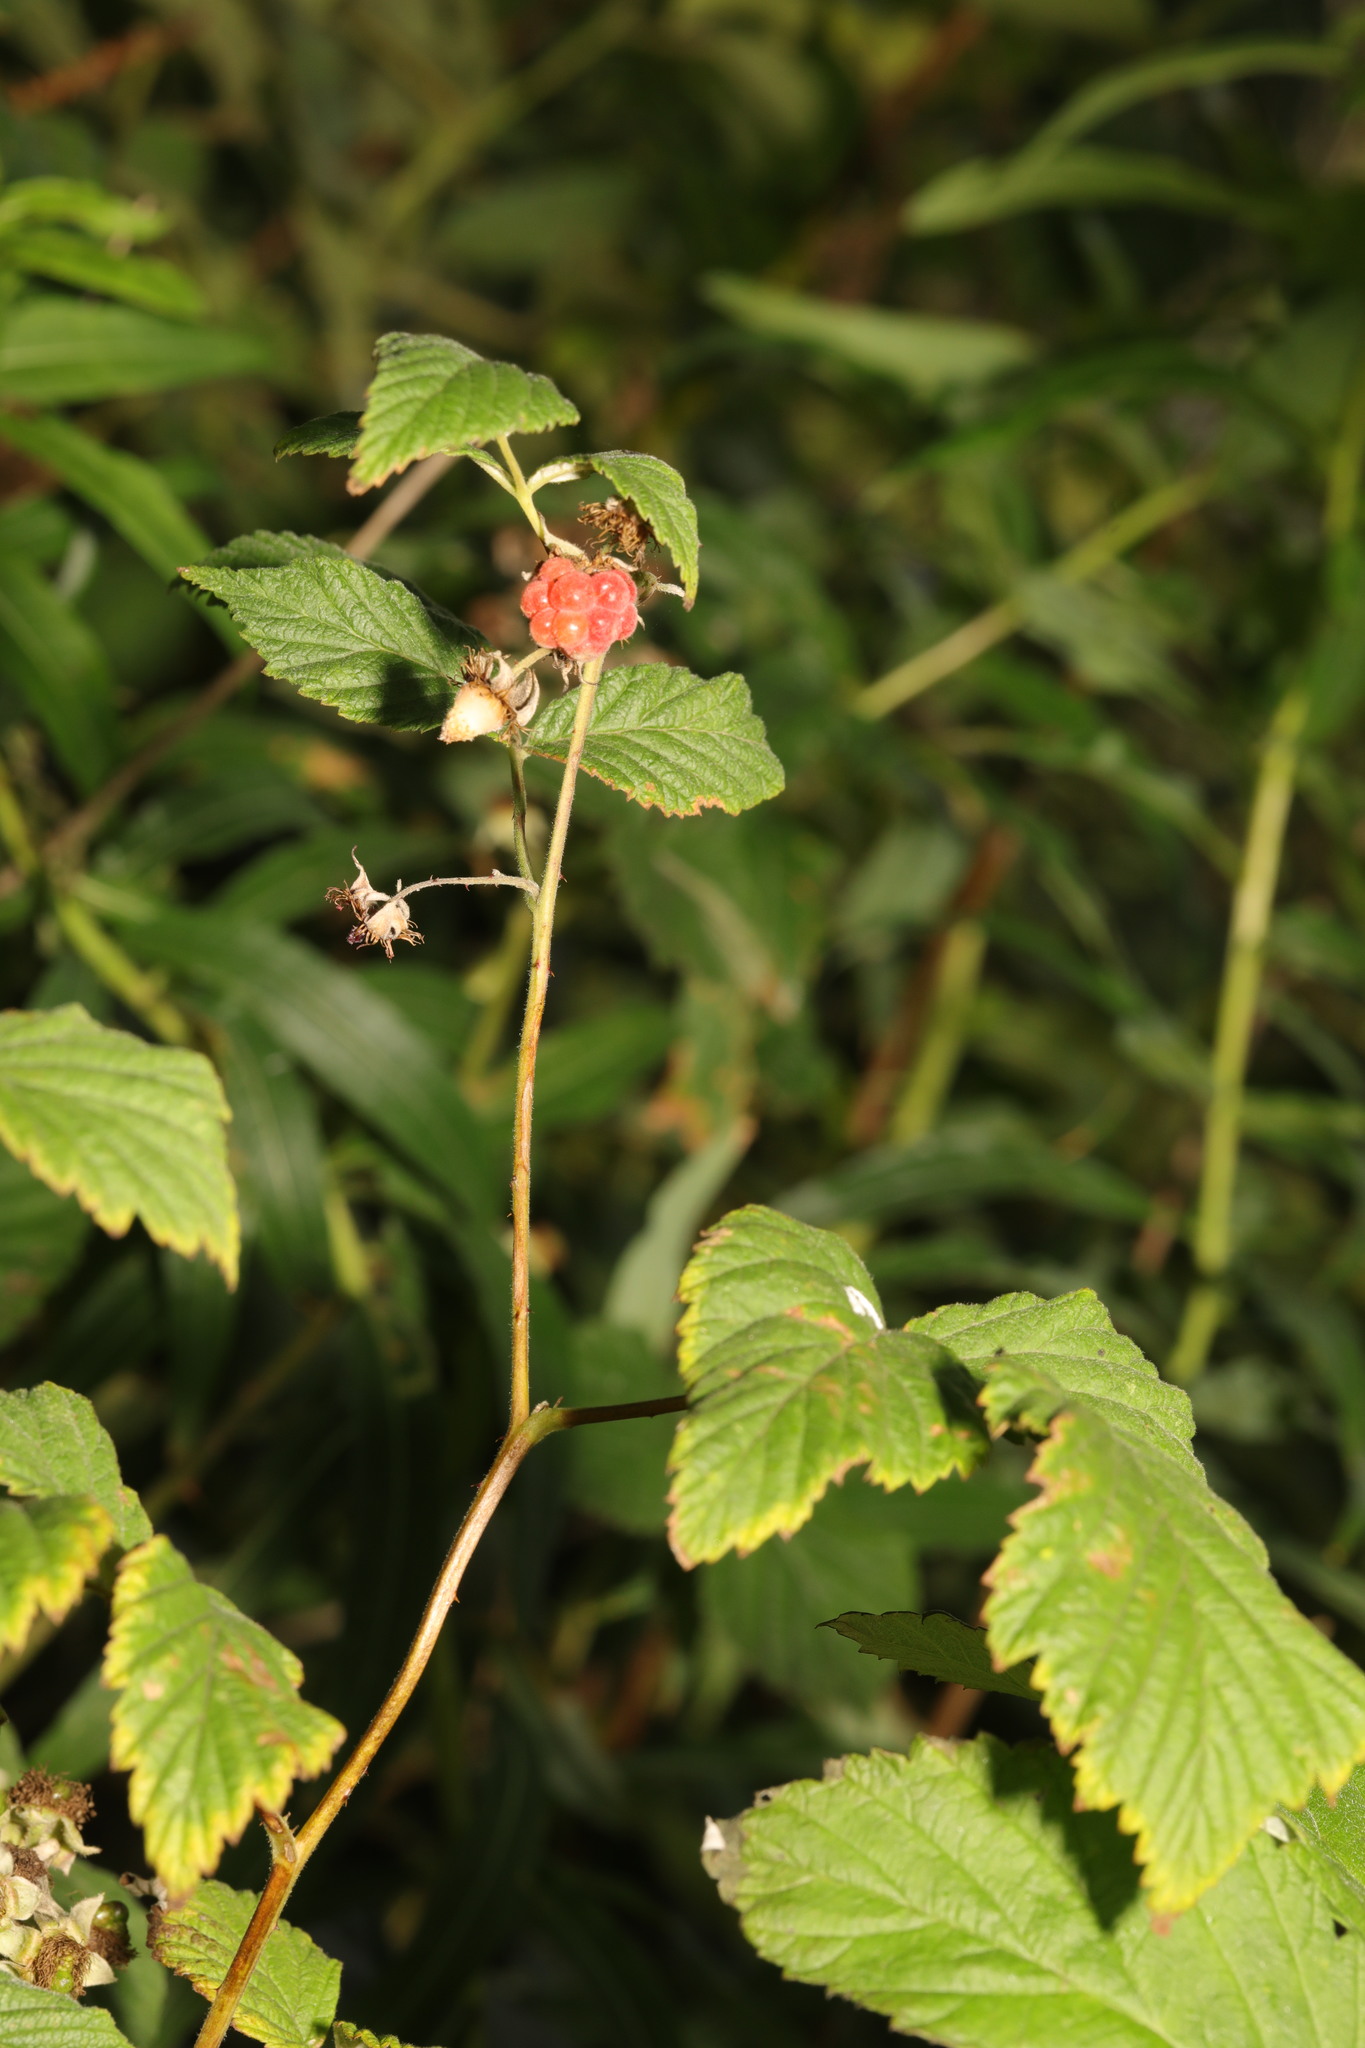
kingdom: Plantae
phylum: Tracheophyta
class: Magnoliopsida
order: Rosales
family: Rosaceae
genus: Rubus
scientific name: Rubus idaeus
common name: Raspberry
